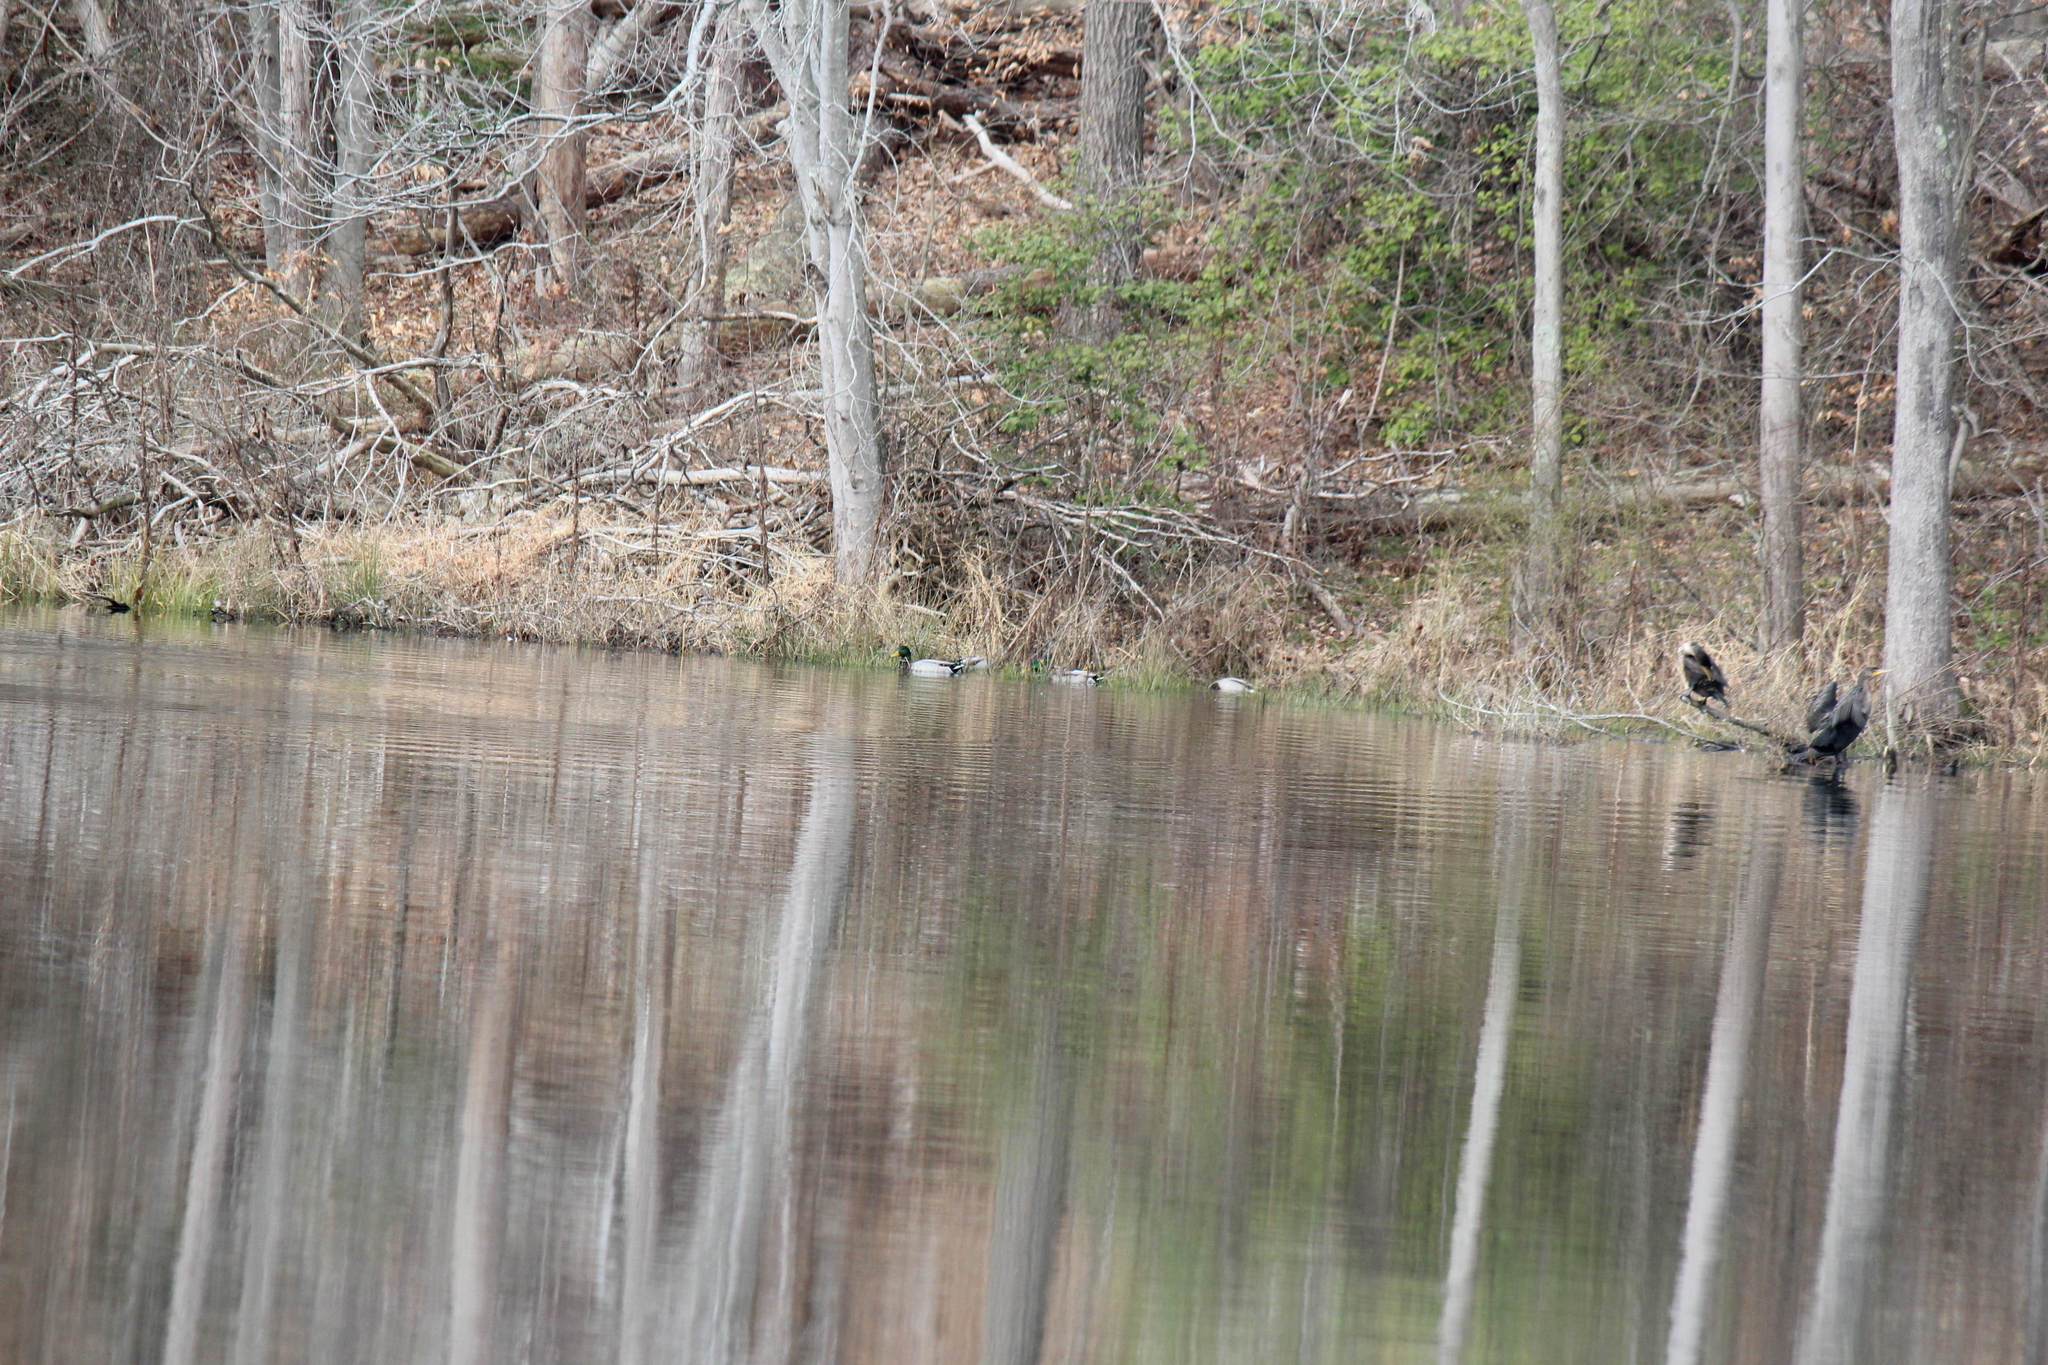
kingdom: Animalia
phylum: Chordata
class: Aves
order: Anseriformes
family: Anatidae
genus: Anas
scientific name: Anas platyrhynchos
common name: Mallard
